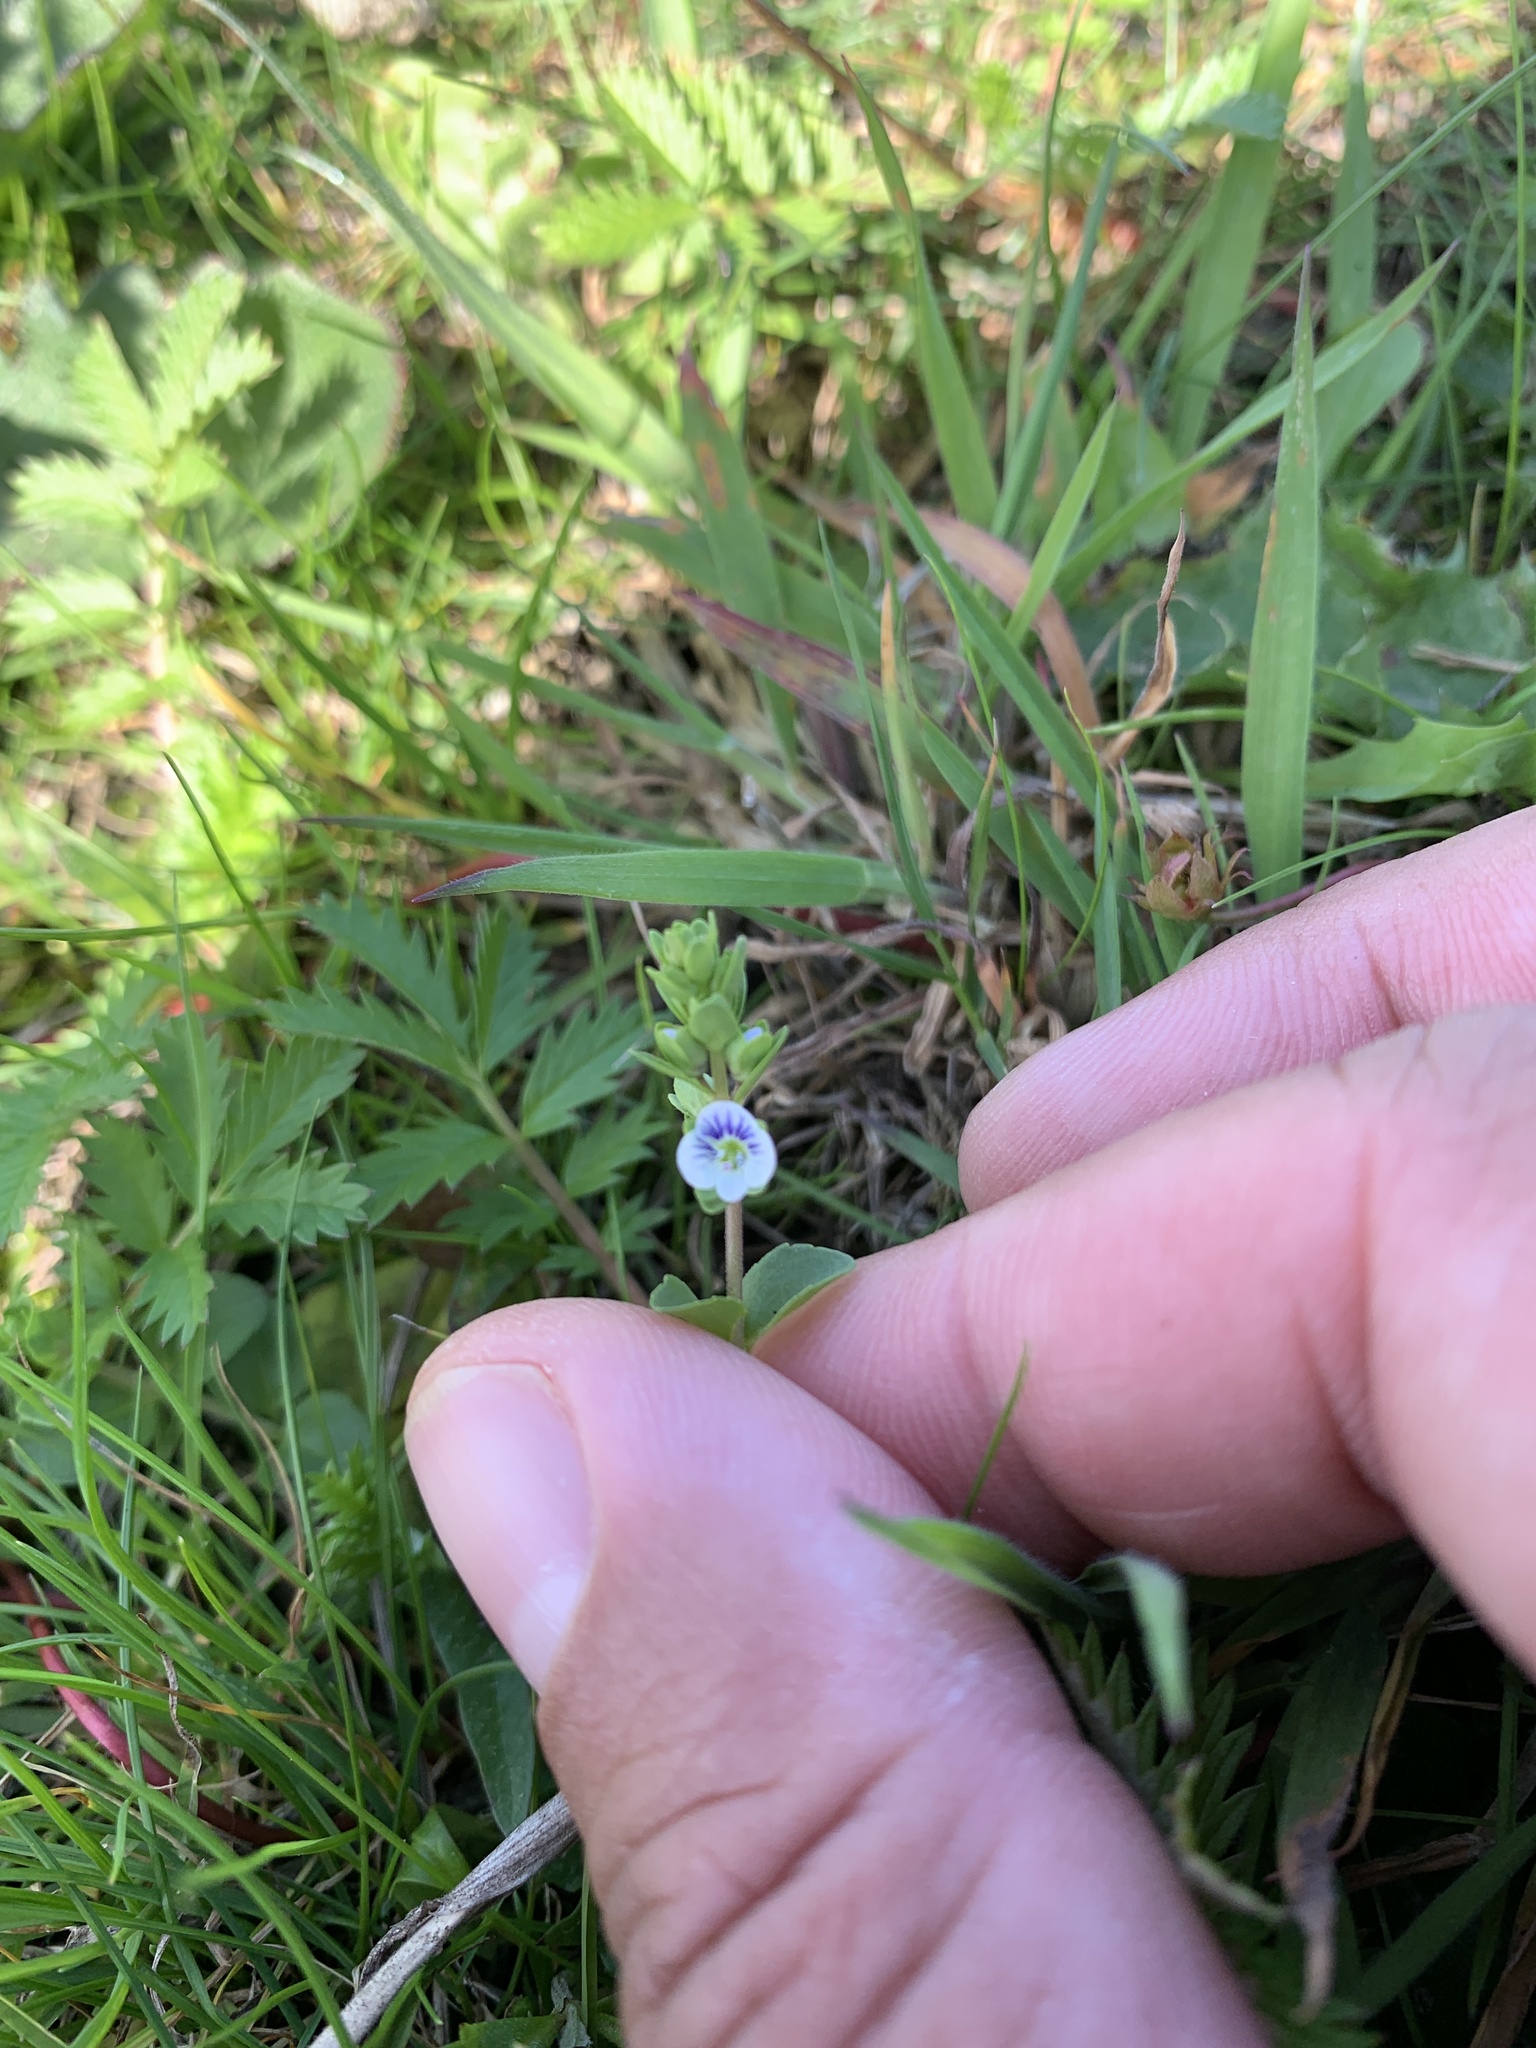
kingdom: Plantae
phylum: Tracheophyta
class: Magnoliopsida
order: Lamiales
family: Plantaginaceae
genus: Veronica
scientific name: Veronica serpyllifolia
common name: Thyme-leaved speedwell
